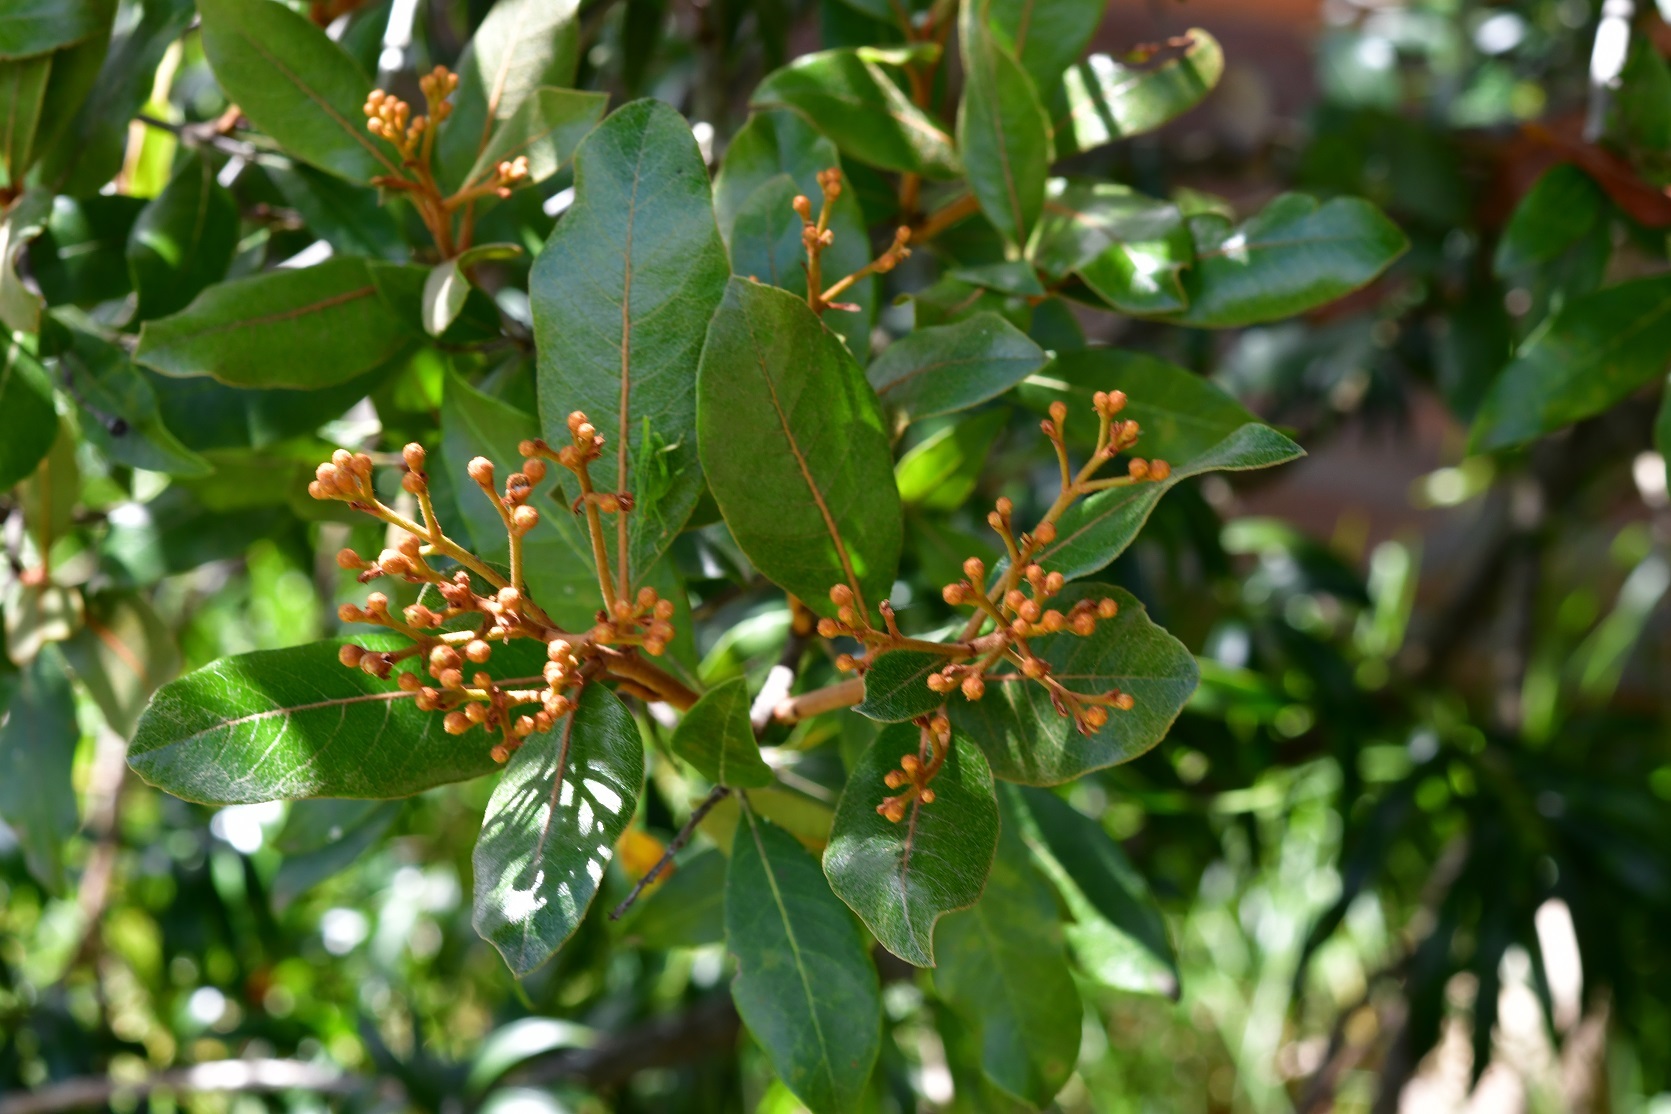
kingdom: Plantae
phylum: Tracheophyta
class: Magnoliopsida
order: Rosales
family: Rosaceae
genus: Phippsiomeles
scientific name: Phippsiomeles matudae
